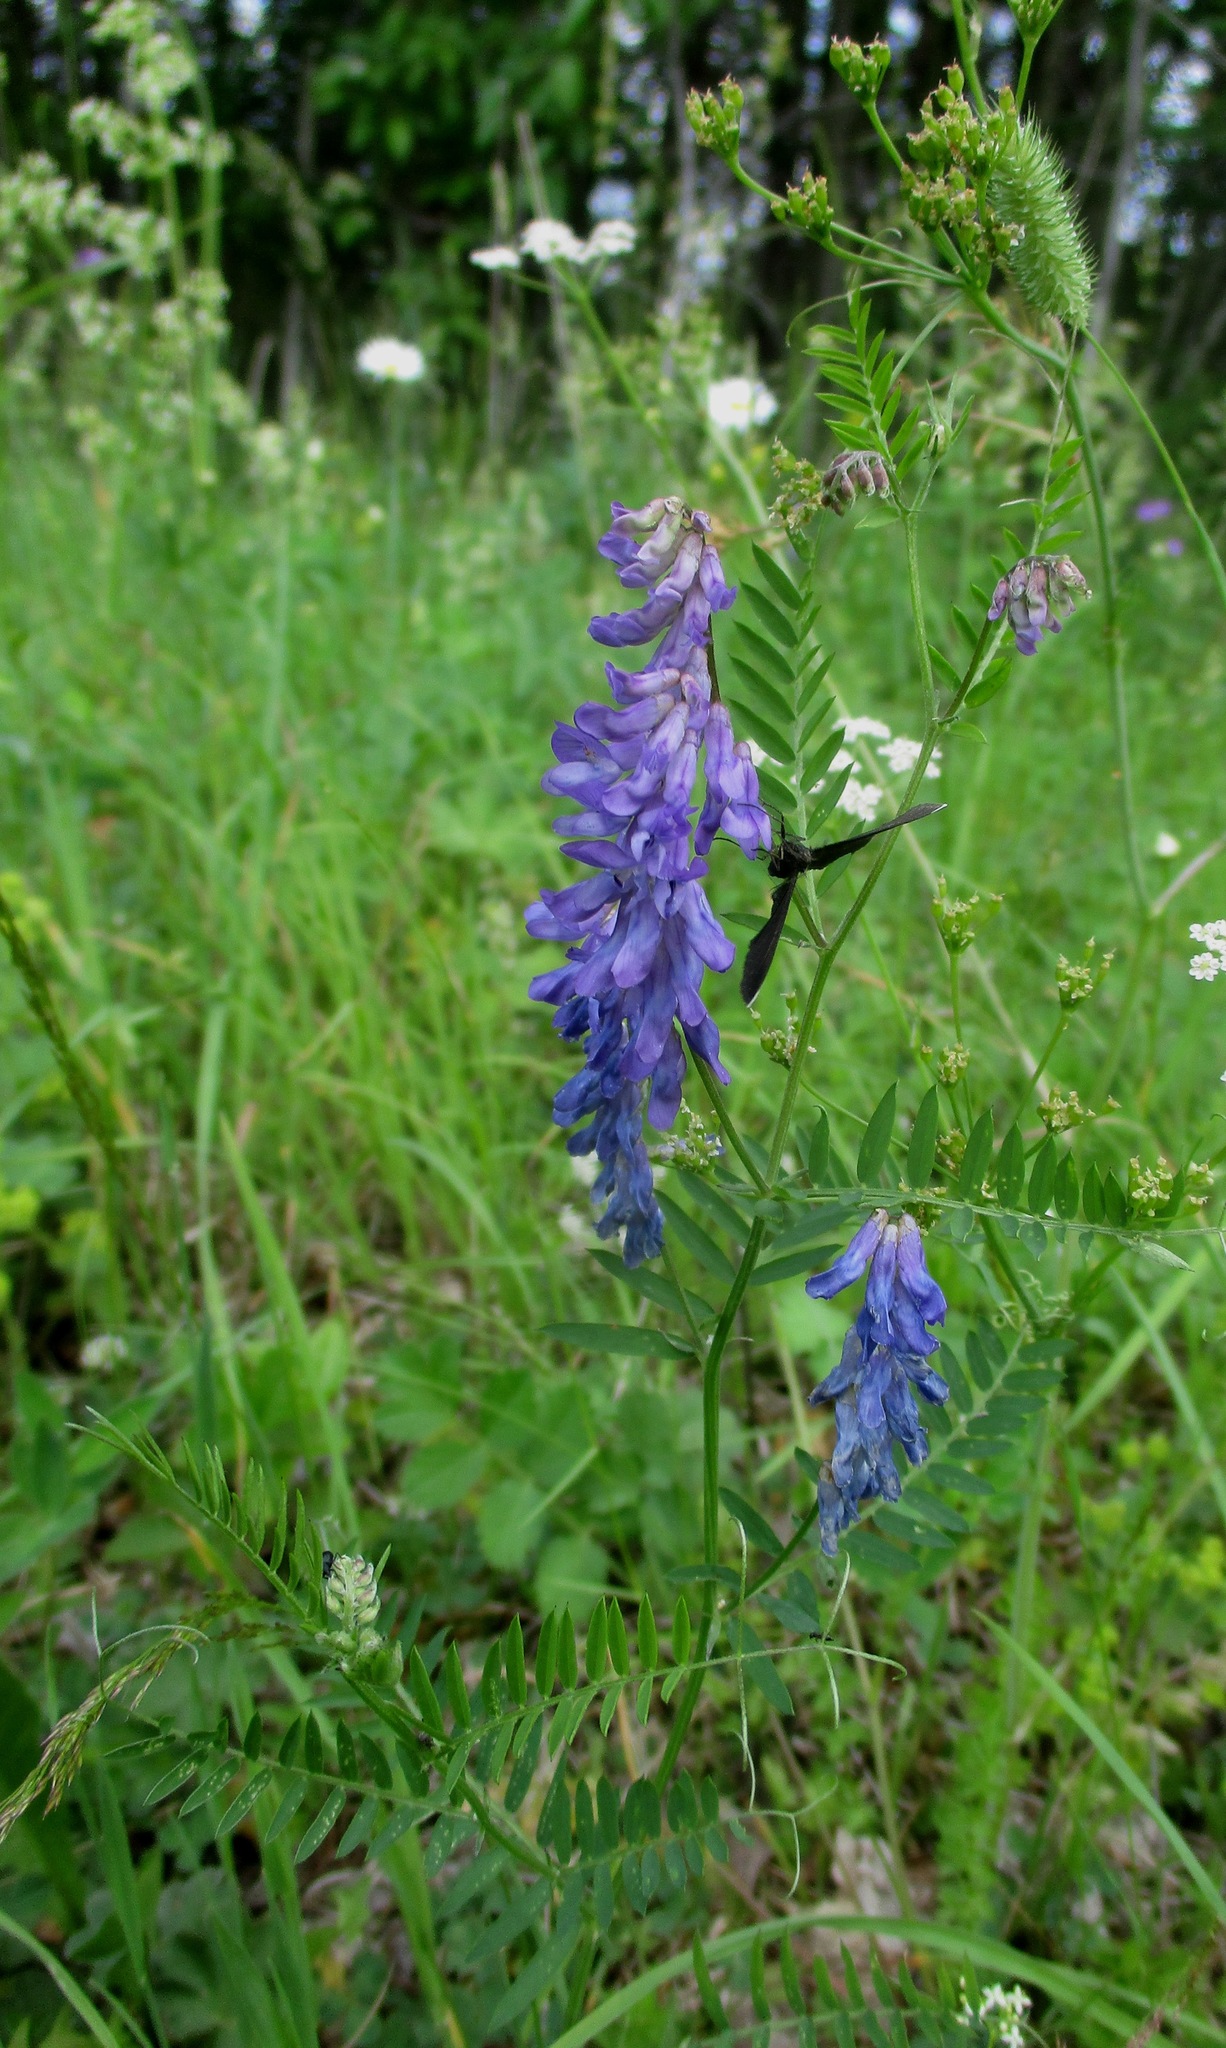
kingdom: Plantae
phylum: Tracheophyta
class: Magnoliopsida
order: Fabales
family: Fabaceae
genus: Vicia
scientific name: Vicia cracca
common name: Bird vetch
